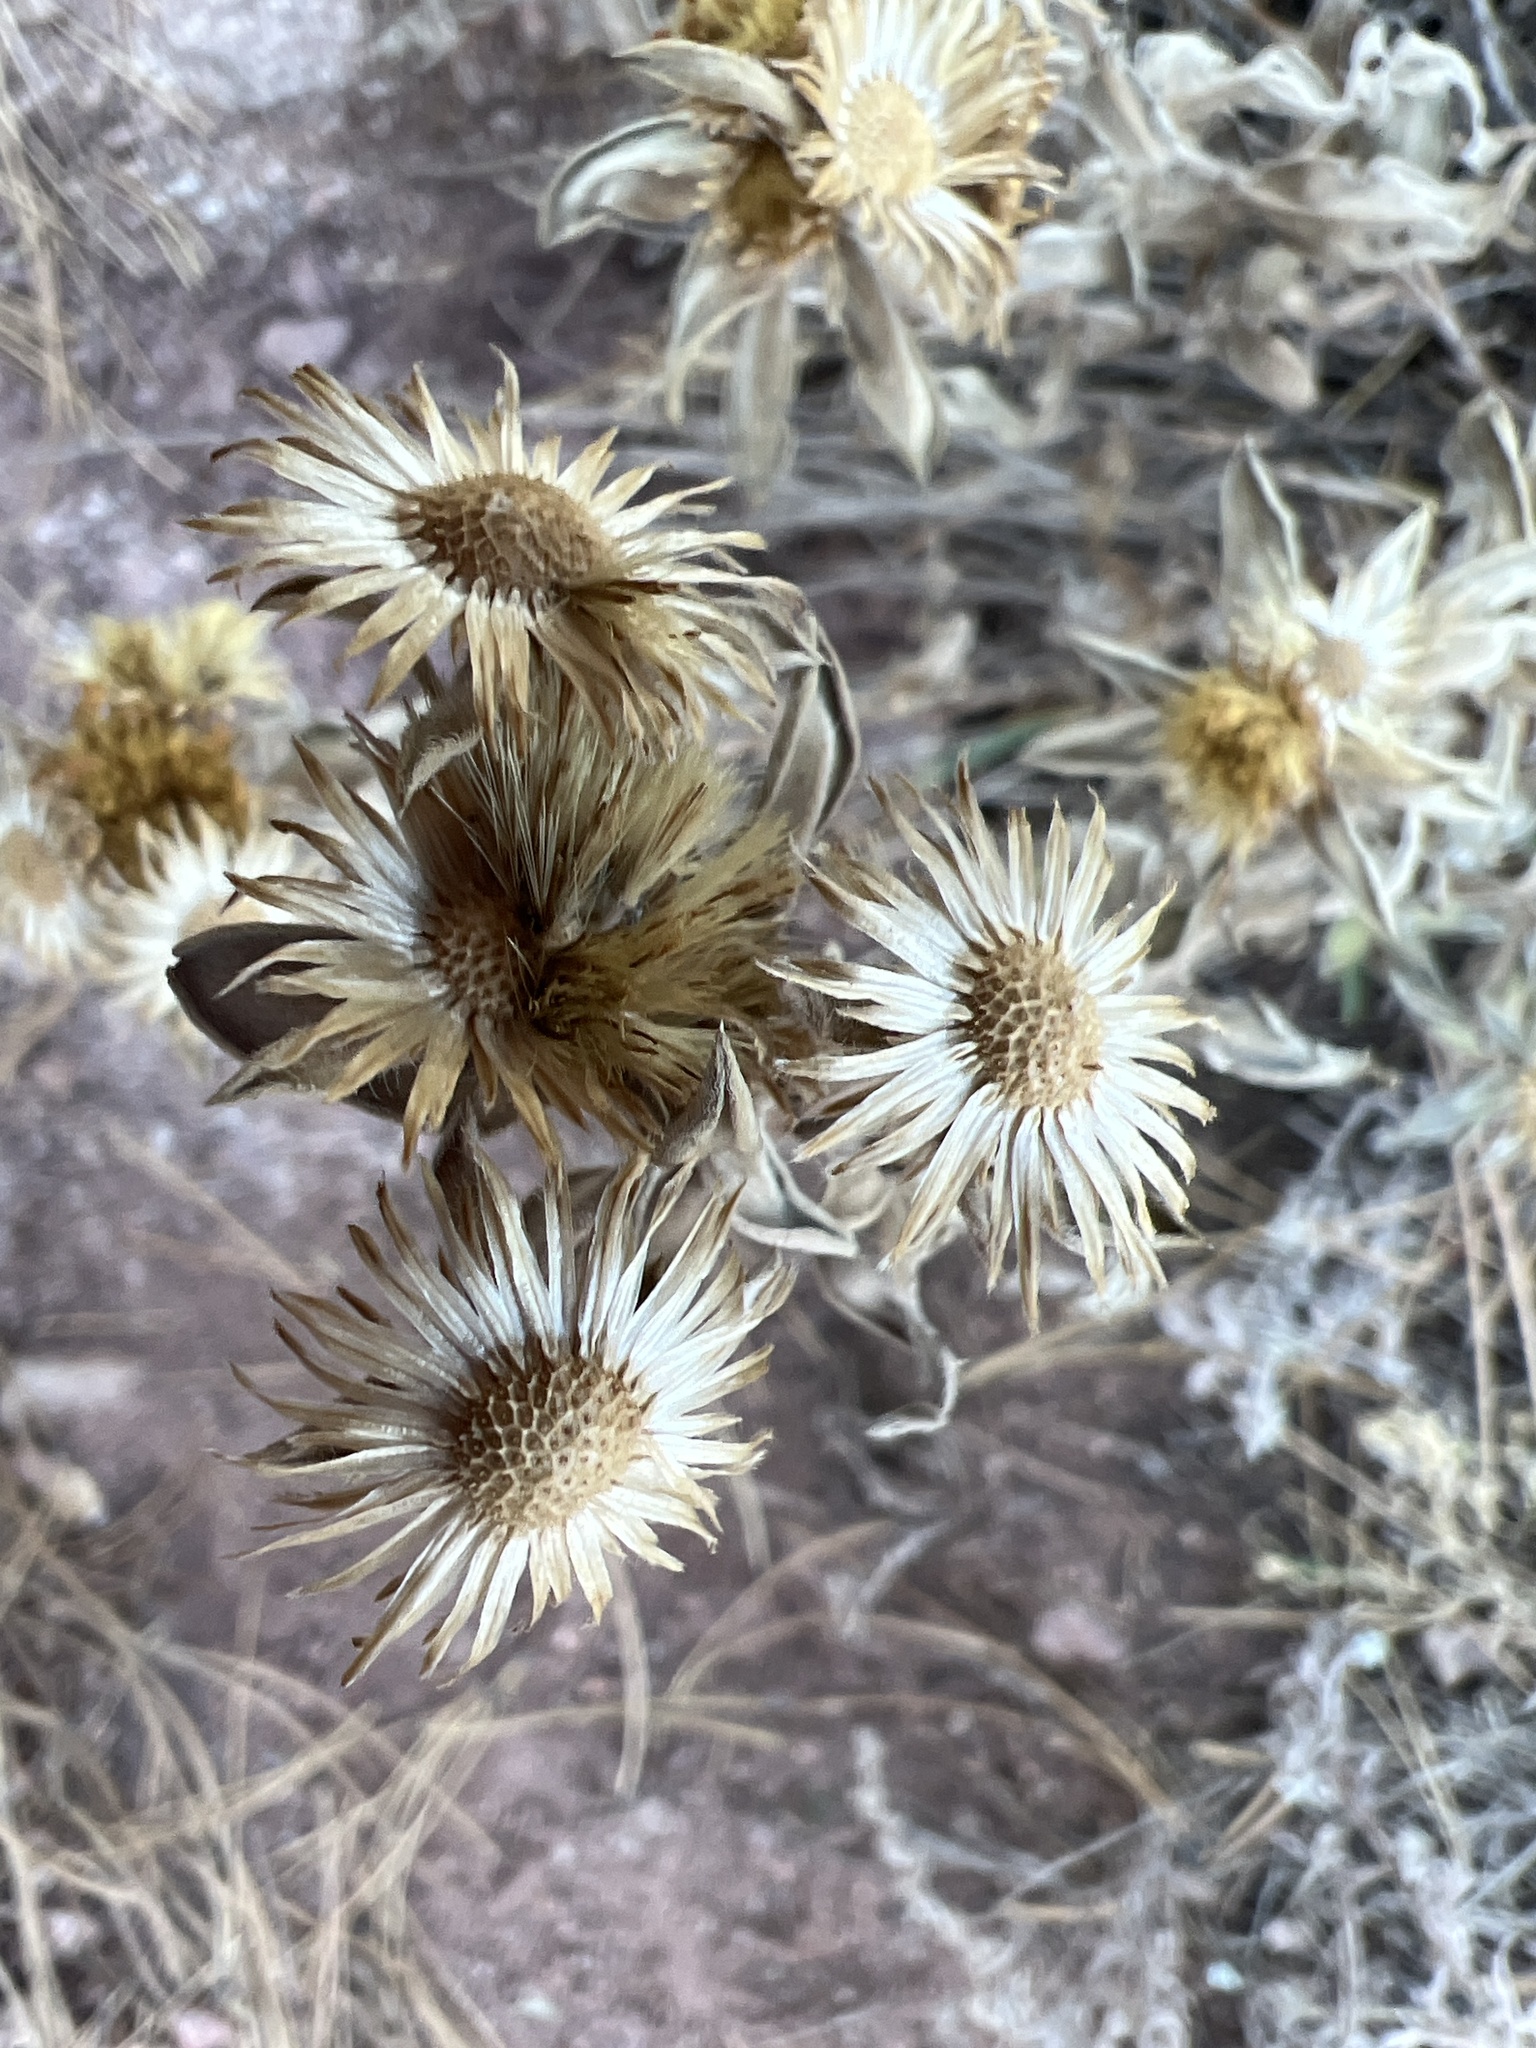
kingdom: Plantae
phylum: Tracheophyta
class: Magnoliopsida
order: Asterales
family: Asteraceae
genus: Heterotheca
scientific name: Heterotheca villosa
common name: Hairy false goldenaster
